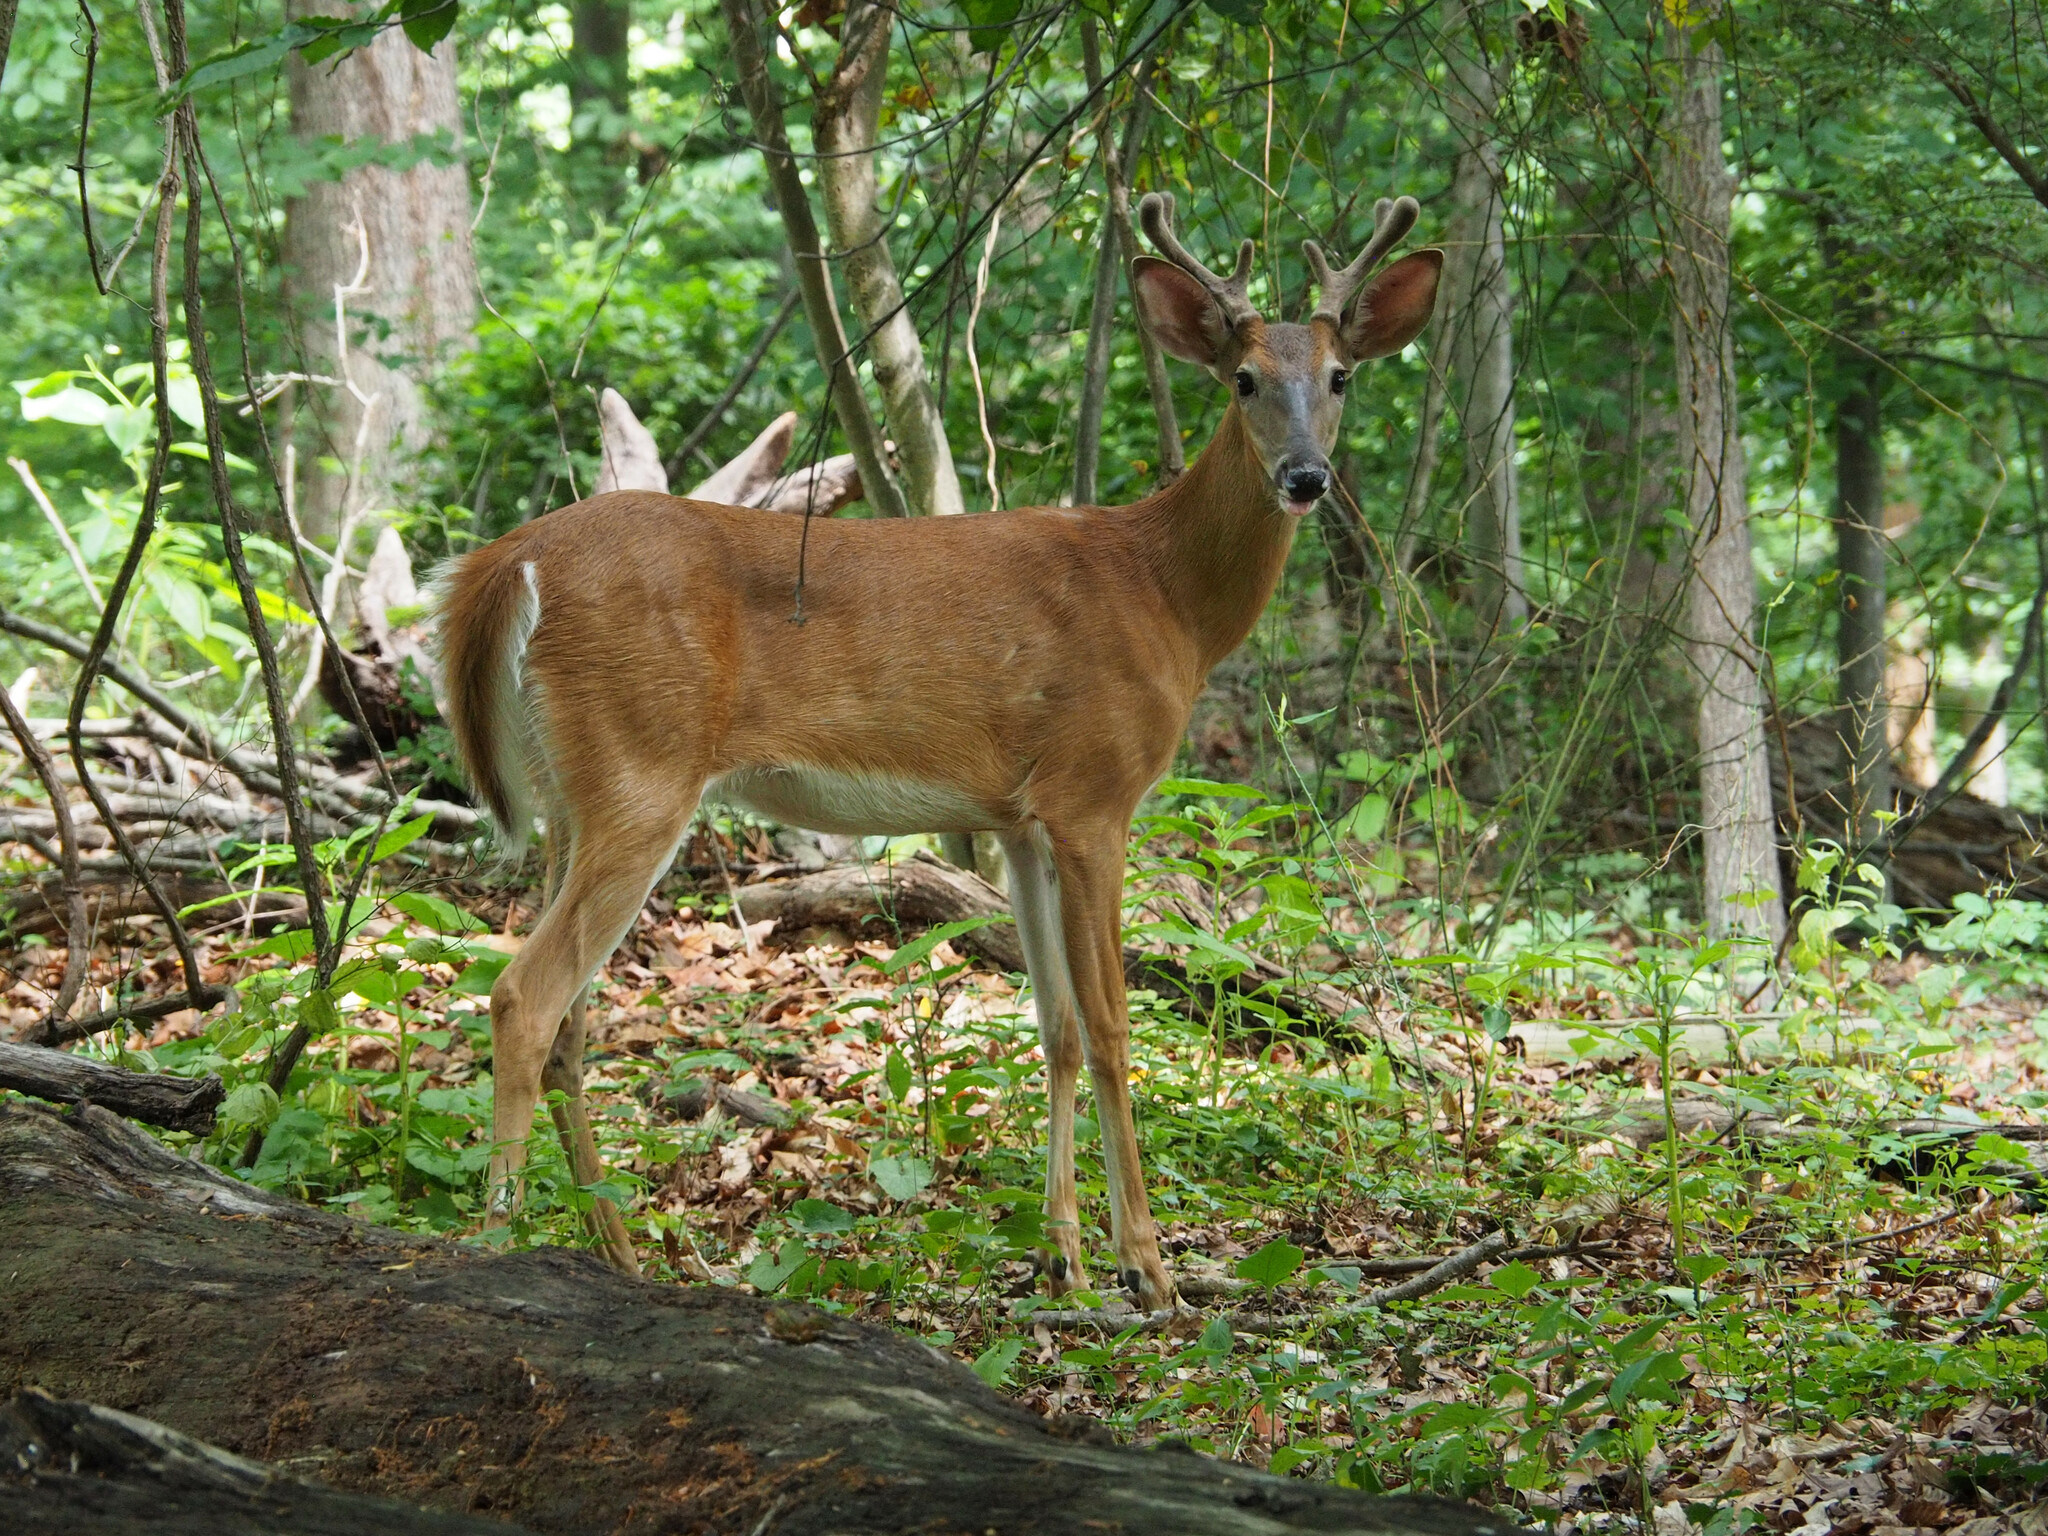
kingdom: Animalia
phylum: Chordata
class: Mammalia
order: Artiodactyla
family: Cervidae
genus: Odocoileus
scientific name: Odocoileus virginianus
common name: White-tailed deer
